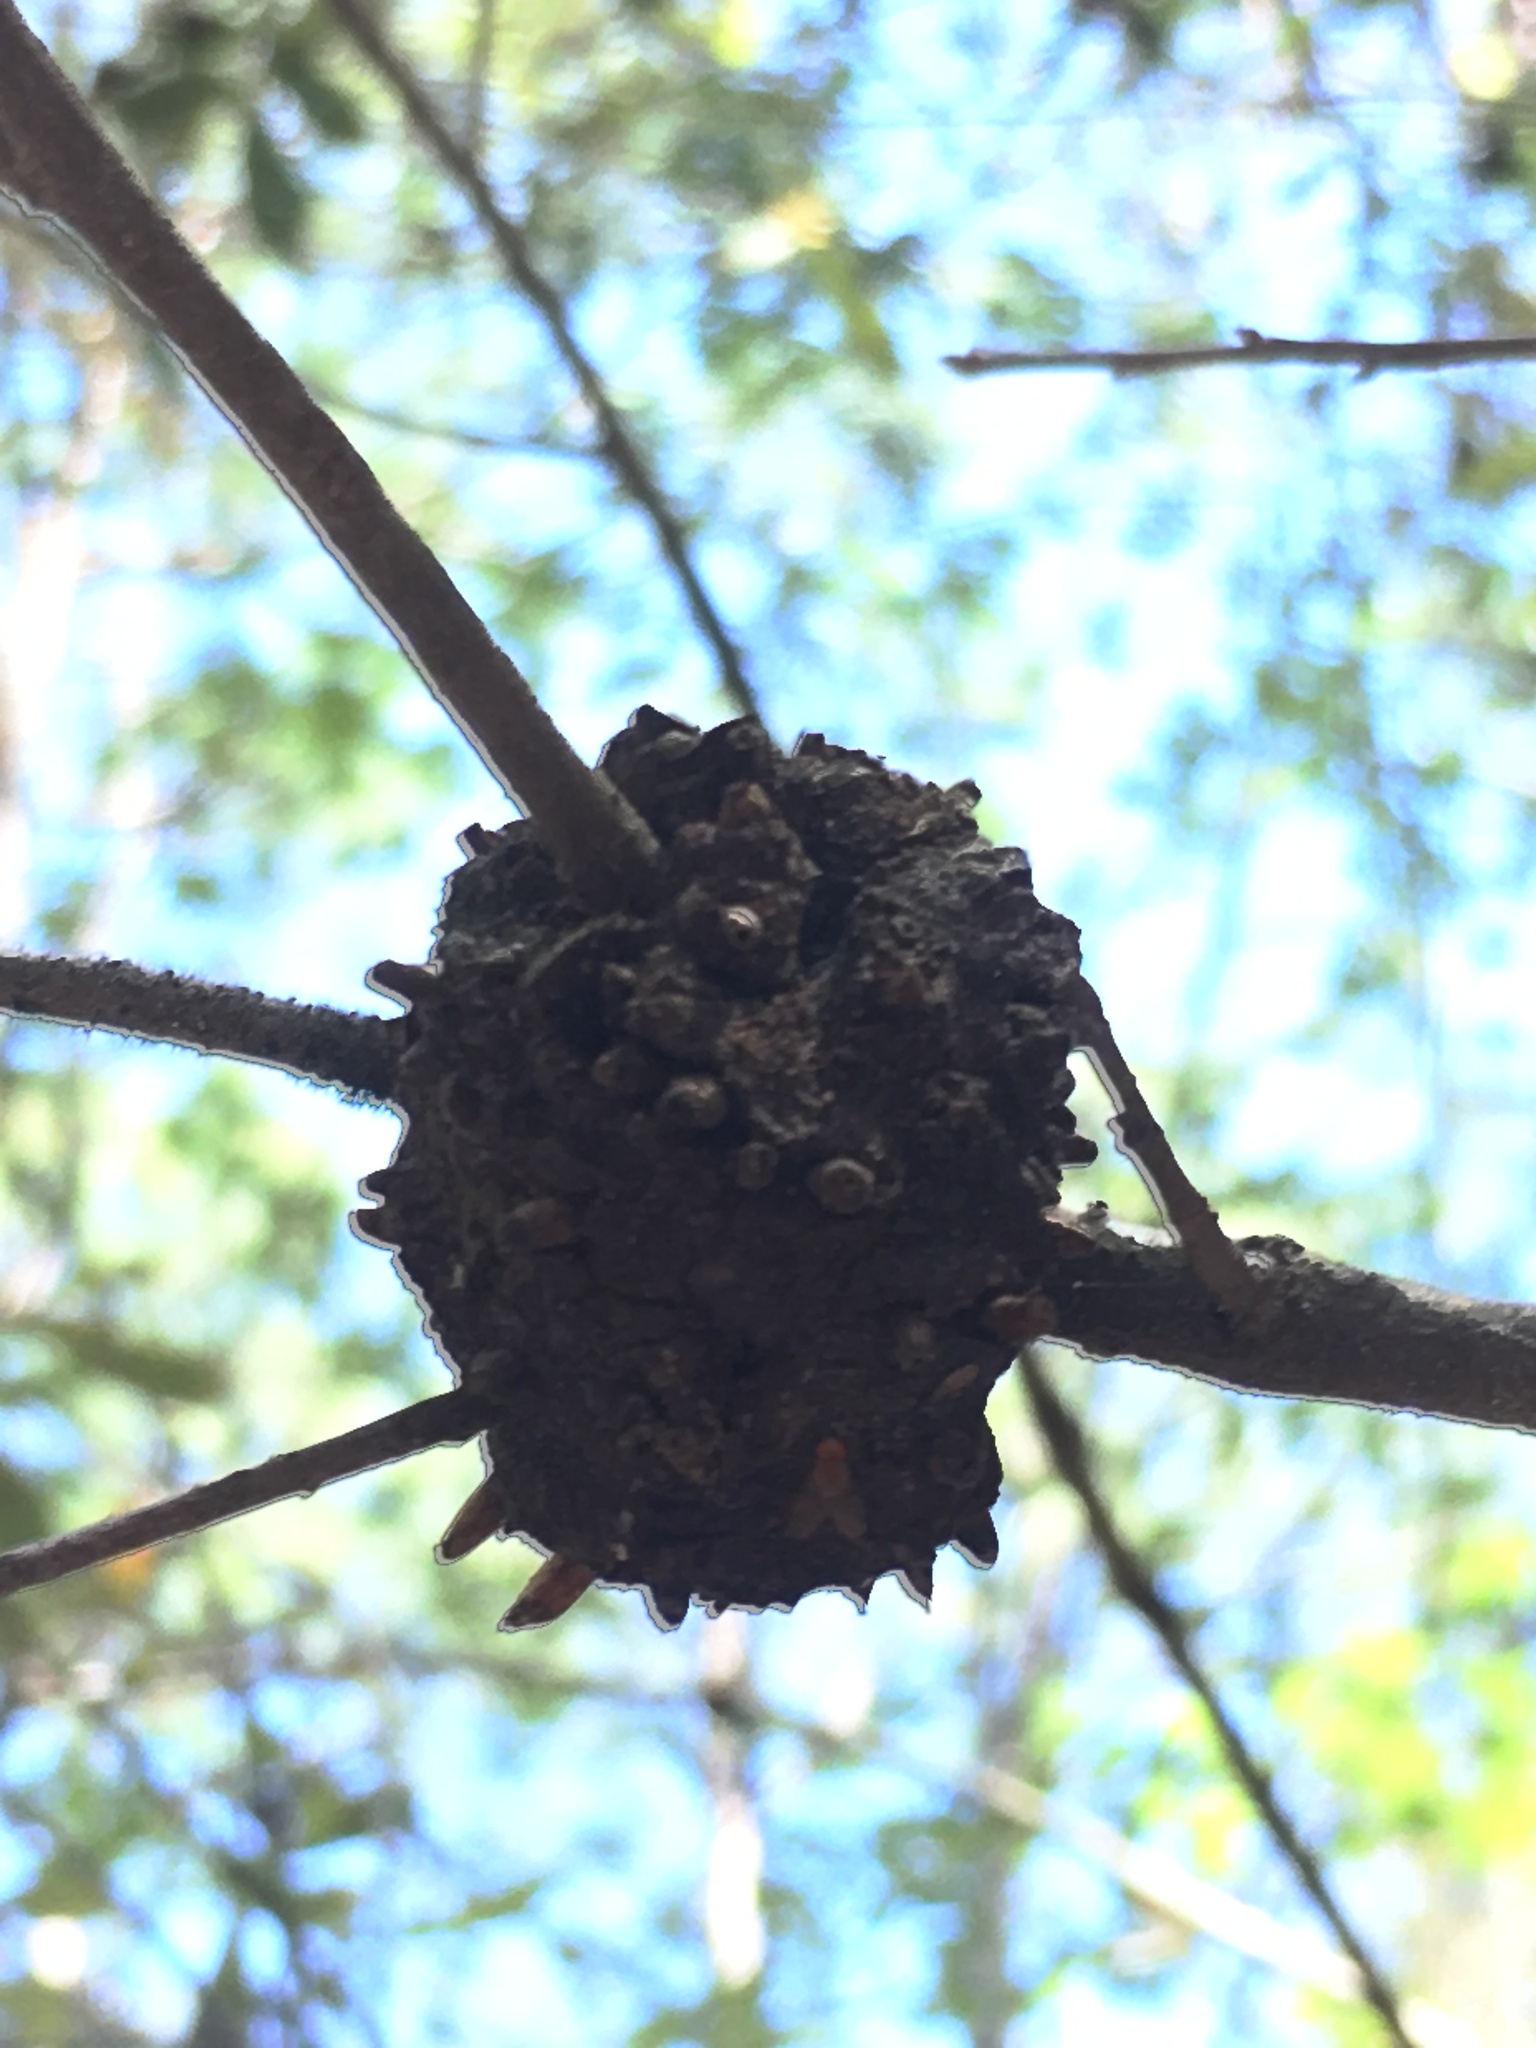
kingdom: Animalia
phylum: Arthropoda
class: Insecta
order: Hymenoptera
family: Cynipidae
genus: Callirhytis
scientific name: Callirhytis
